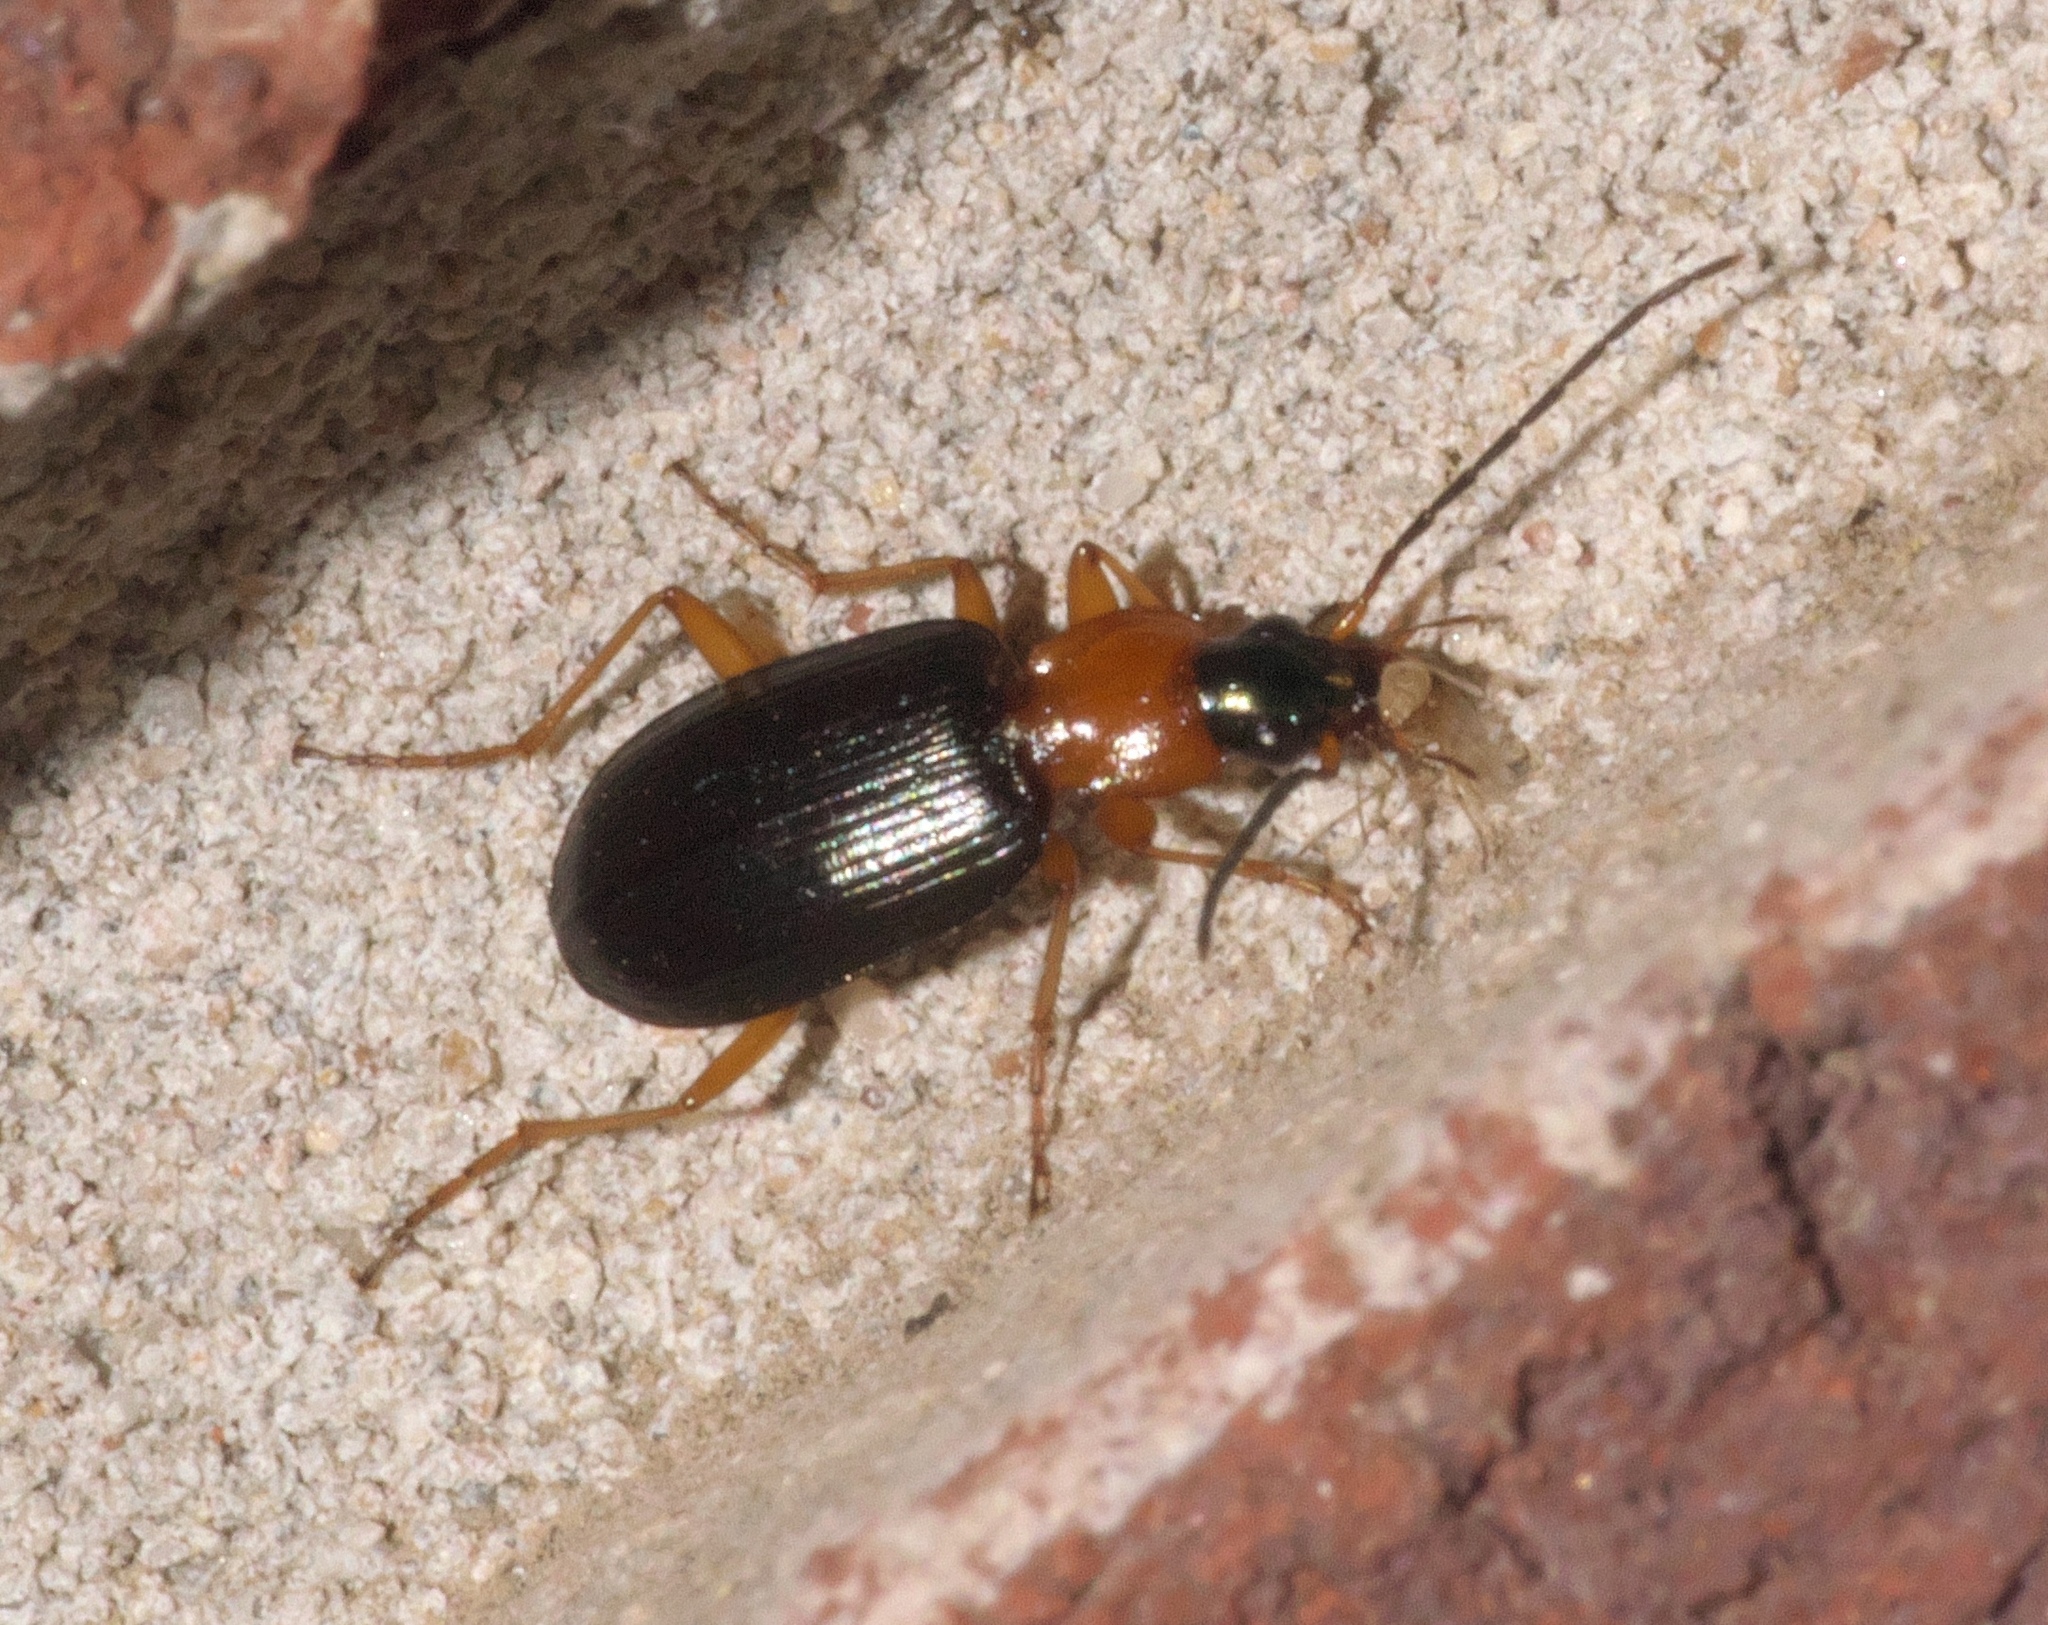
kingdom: Animalia
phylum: Arthropoda
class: Insecta
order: Coleoptera
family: Carabidae
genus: Agonum
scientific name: Agonum decorum
